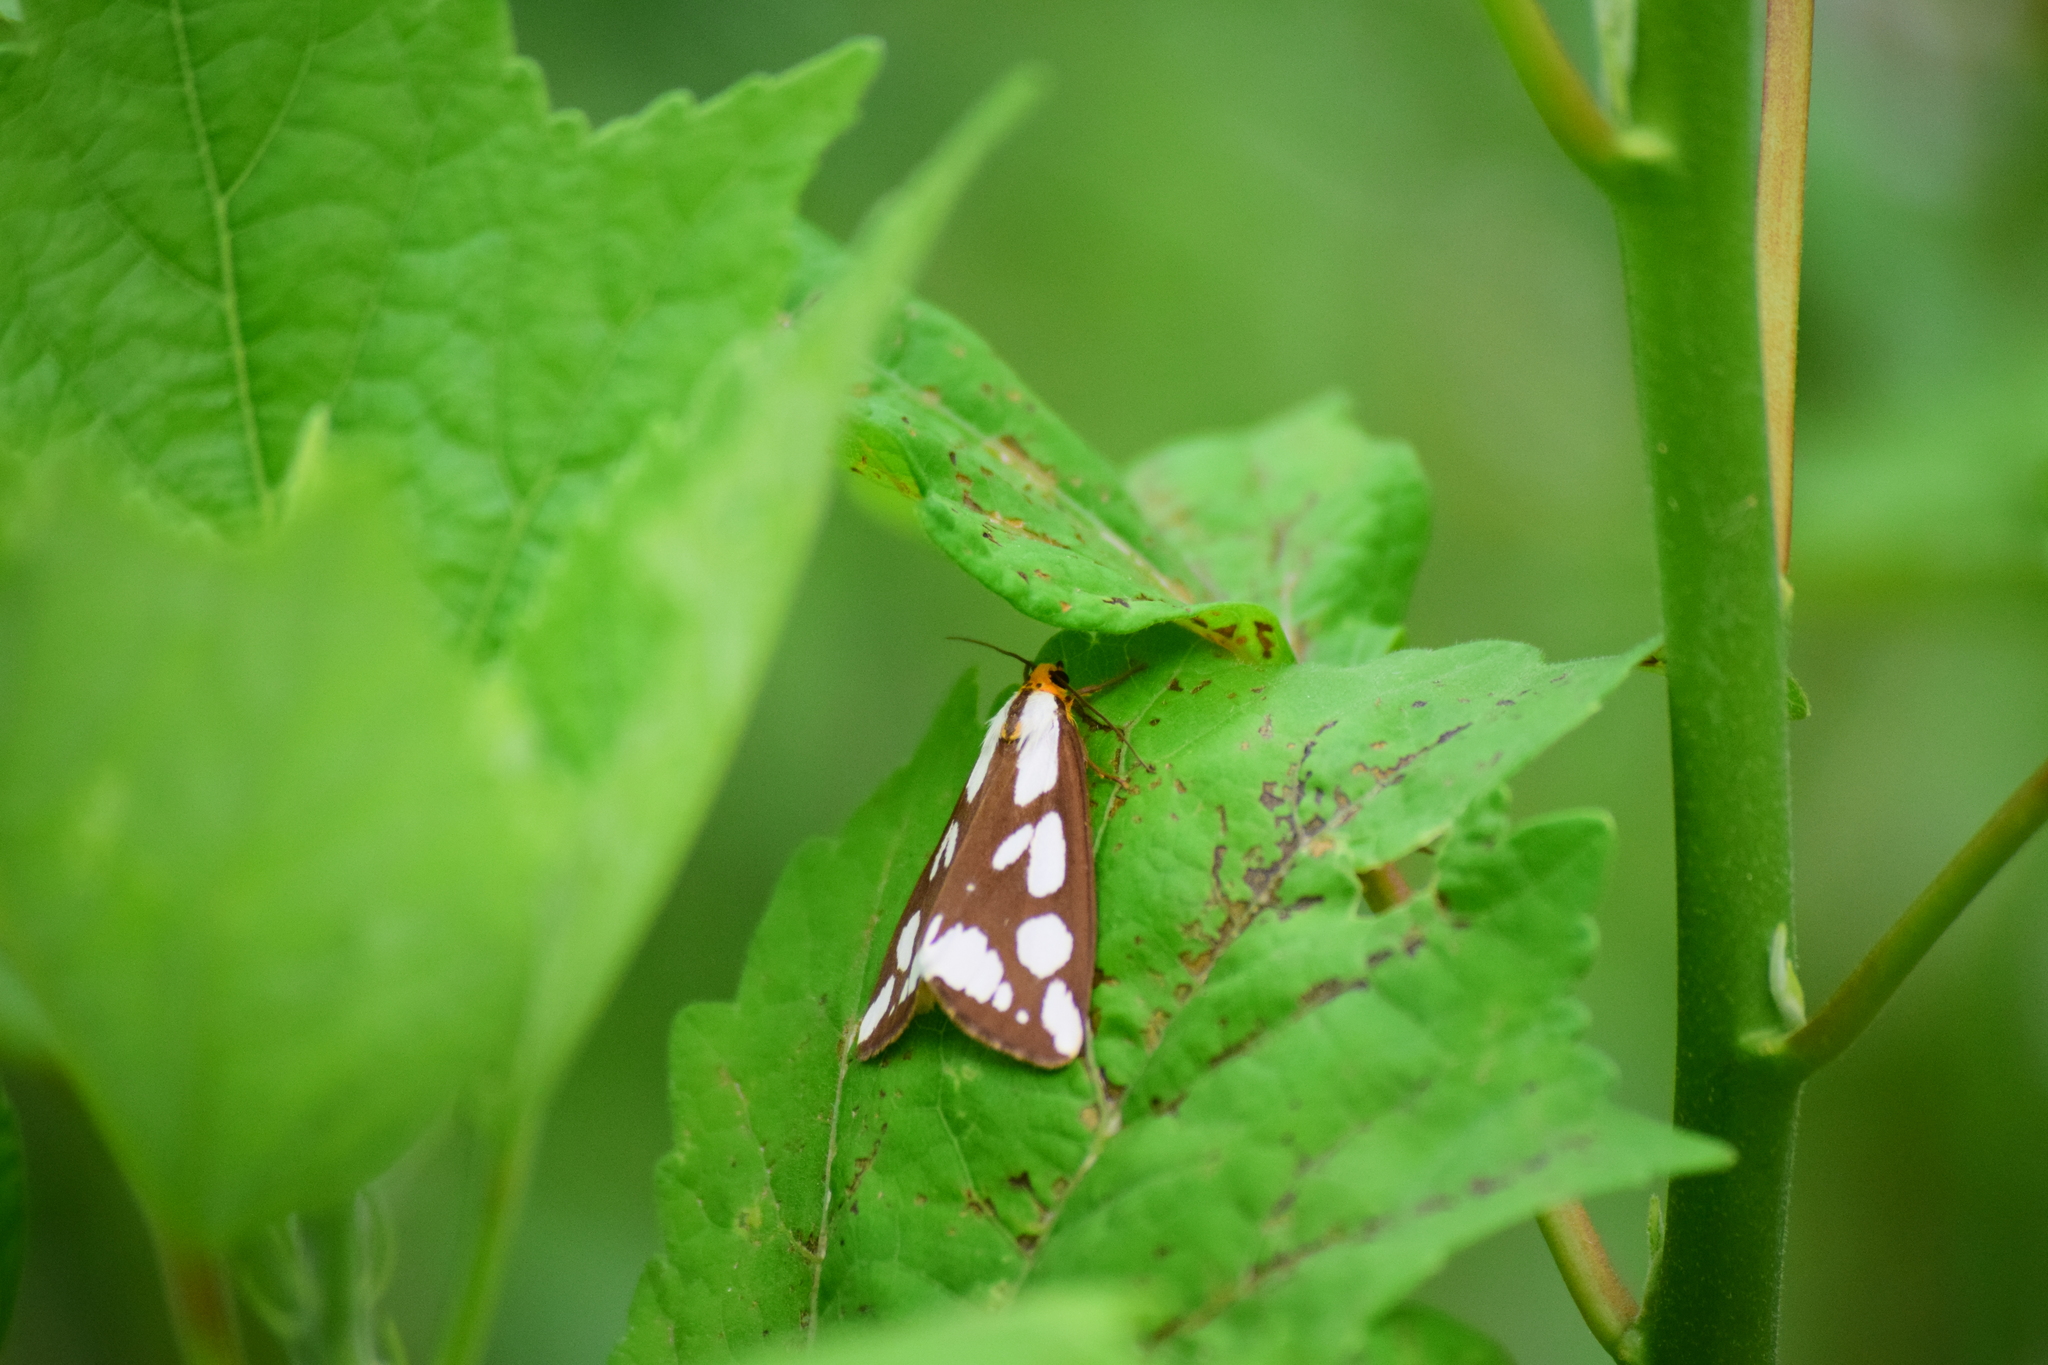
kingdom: Animalia
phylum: Arthropoda
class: Insecta
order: Lepidoptera
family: Erebidae
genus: Haploa
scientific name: Haploa confusa
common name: Confused haploa moth
